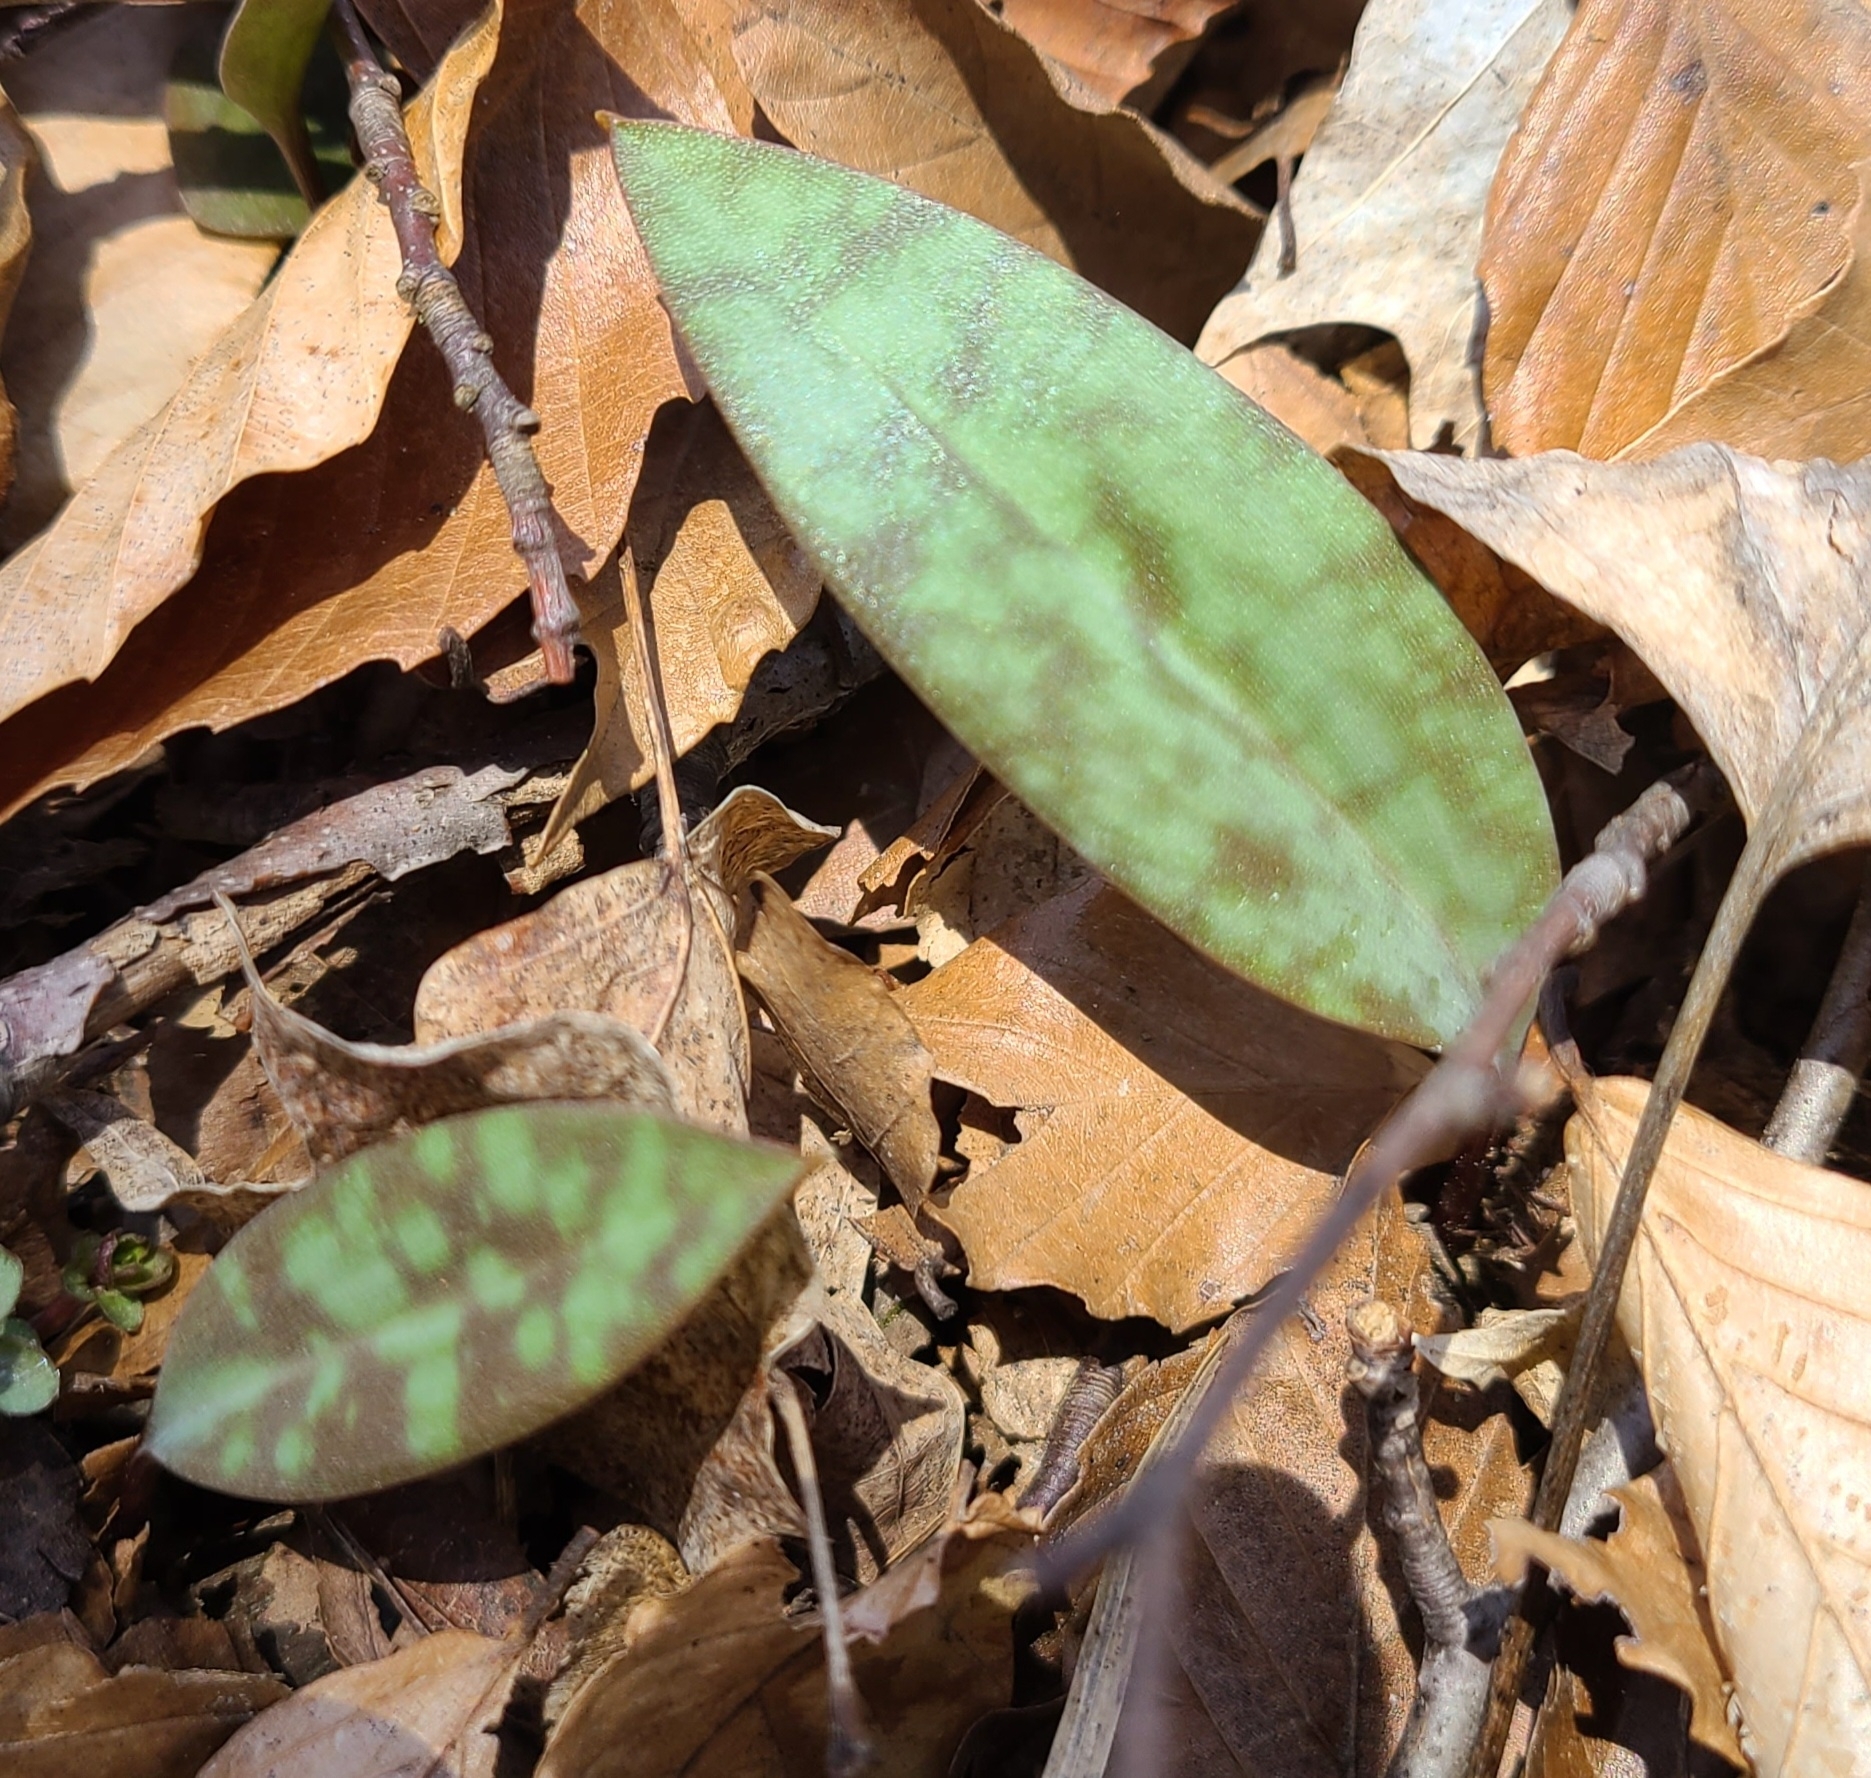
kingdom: Plantae
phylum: Tracheophyta
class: Liliopsida
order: Liliales
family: Liliaceae
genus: Erythronium
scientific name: Erythronium americanum
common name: Yellow adder's-tongue
